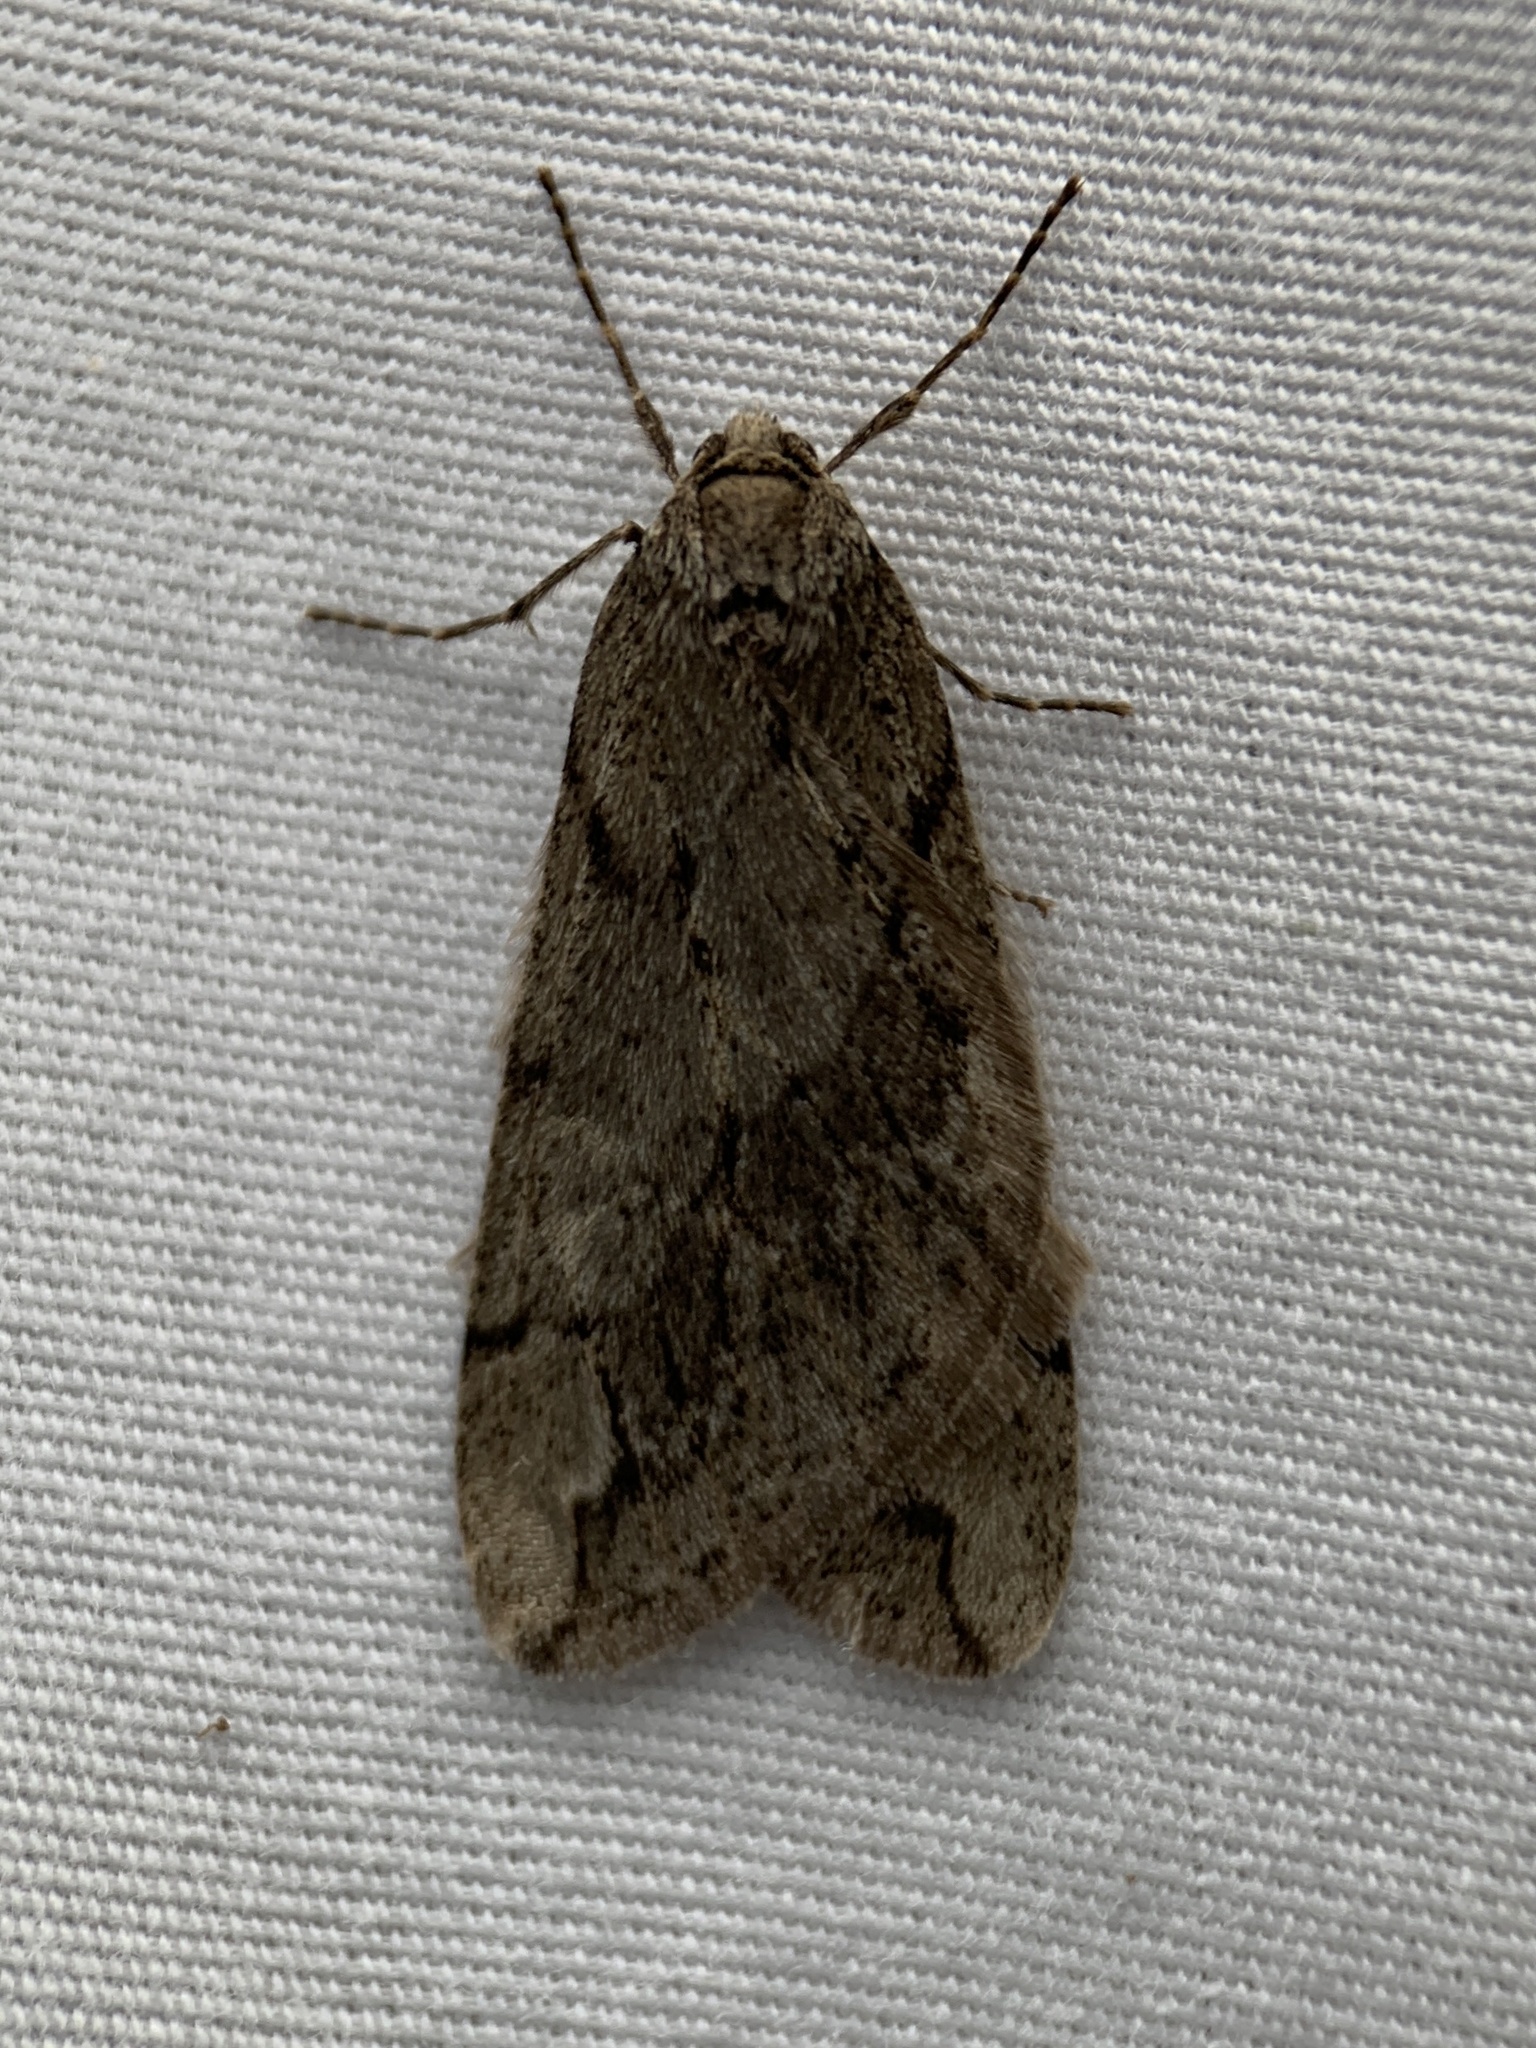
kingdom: Animalia
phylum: Arthropoda
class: Insecta
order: Lepidoptera
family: Geometridae
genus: Paleacrita
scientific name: Paleacrita vernata
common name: Spring cankerworm
